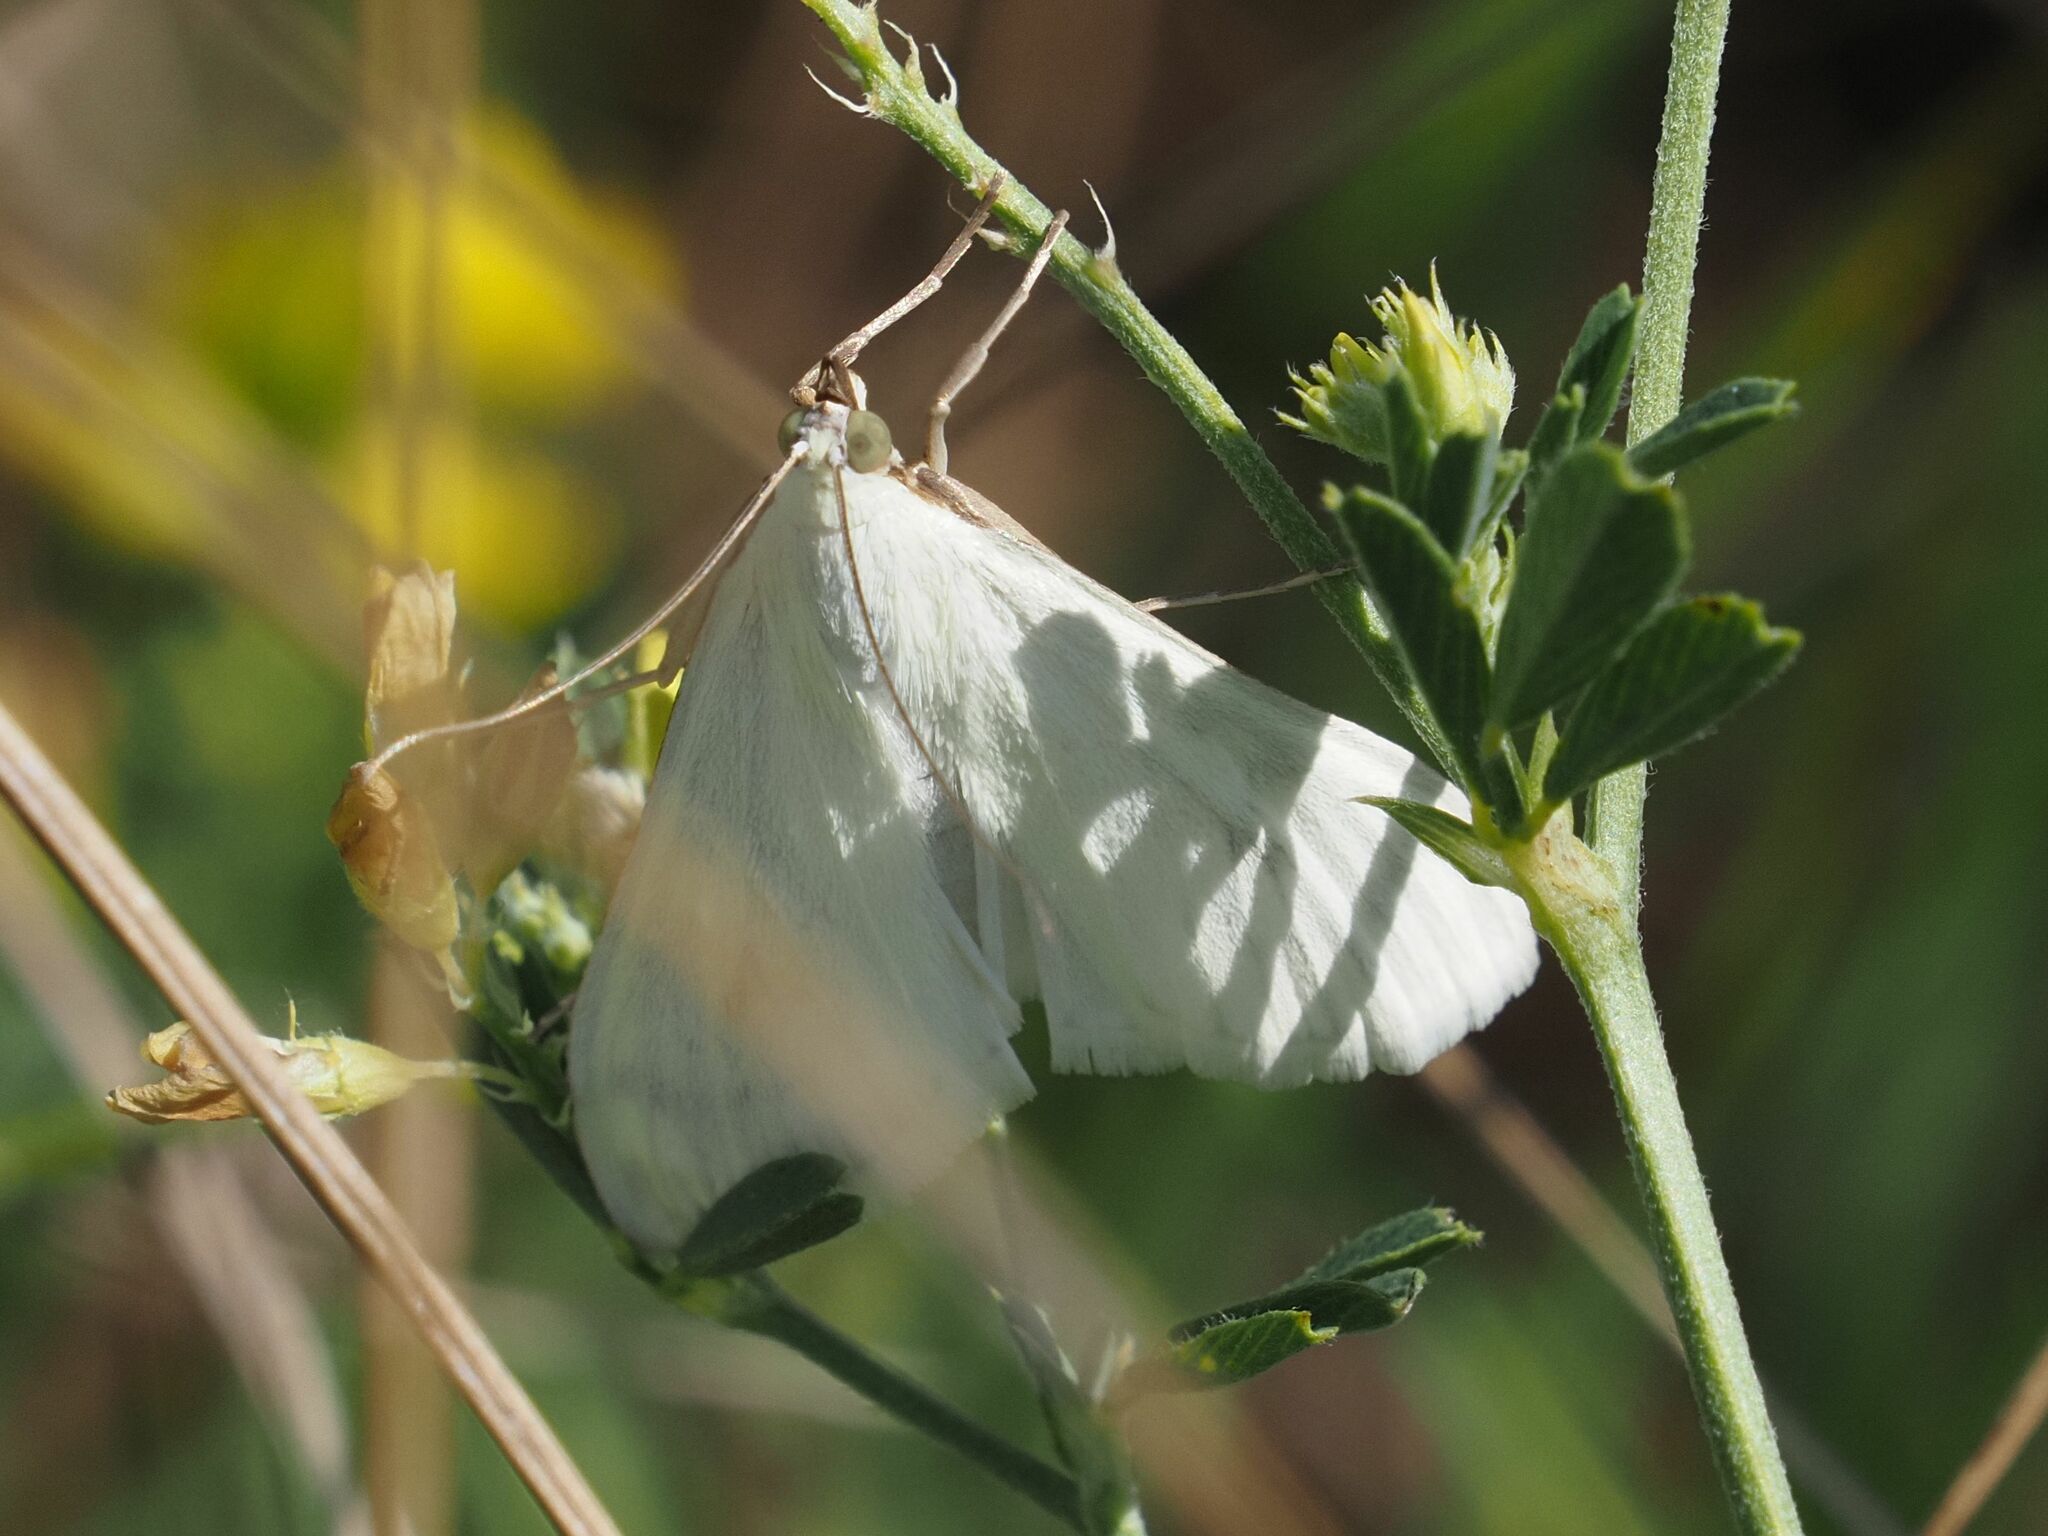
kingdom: Animalia
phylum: Arthropoda
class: Insecta
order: Lepidoptera
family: Crambidae
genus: Sitochroa
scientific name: Sitochroa palealis
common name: Greenish-yellow sitochroa moth
